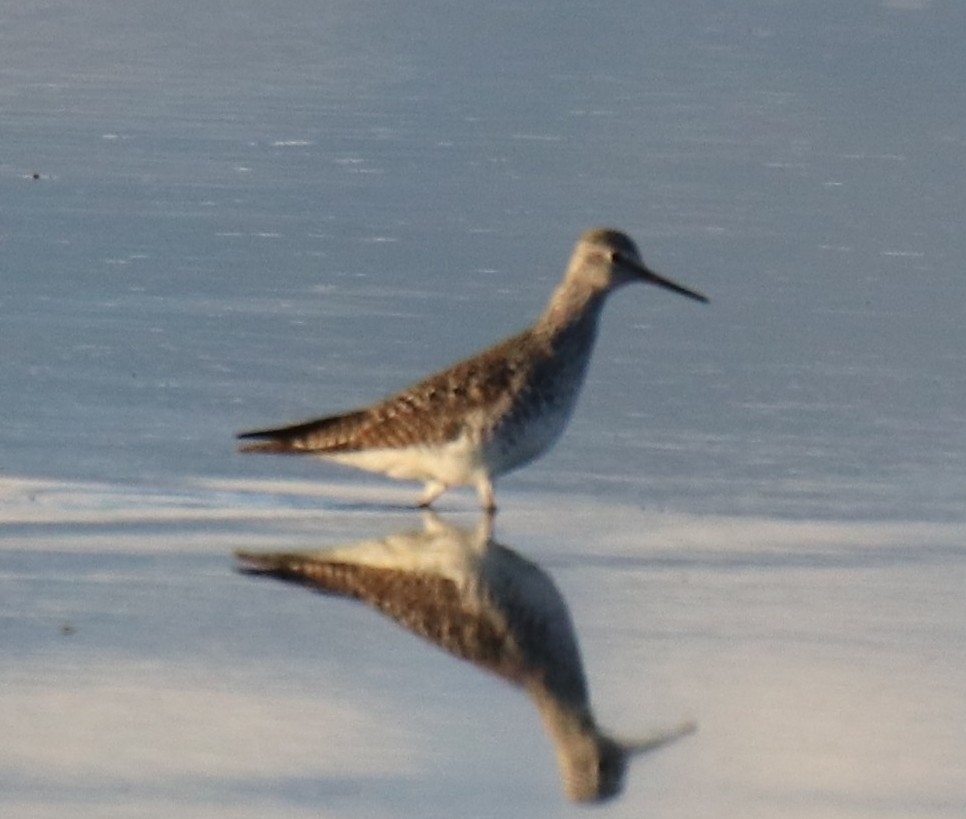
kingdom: Animalia
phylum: Chordata
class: Aves
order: Charadriiformes
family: Scolopacidae
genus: Tringa
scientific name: Tringa flavipes
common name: Lesser yellowlegs
